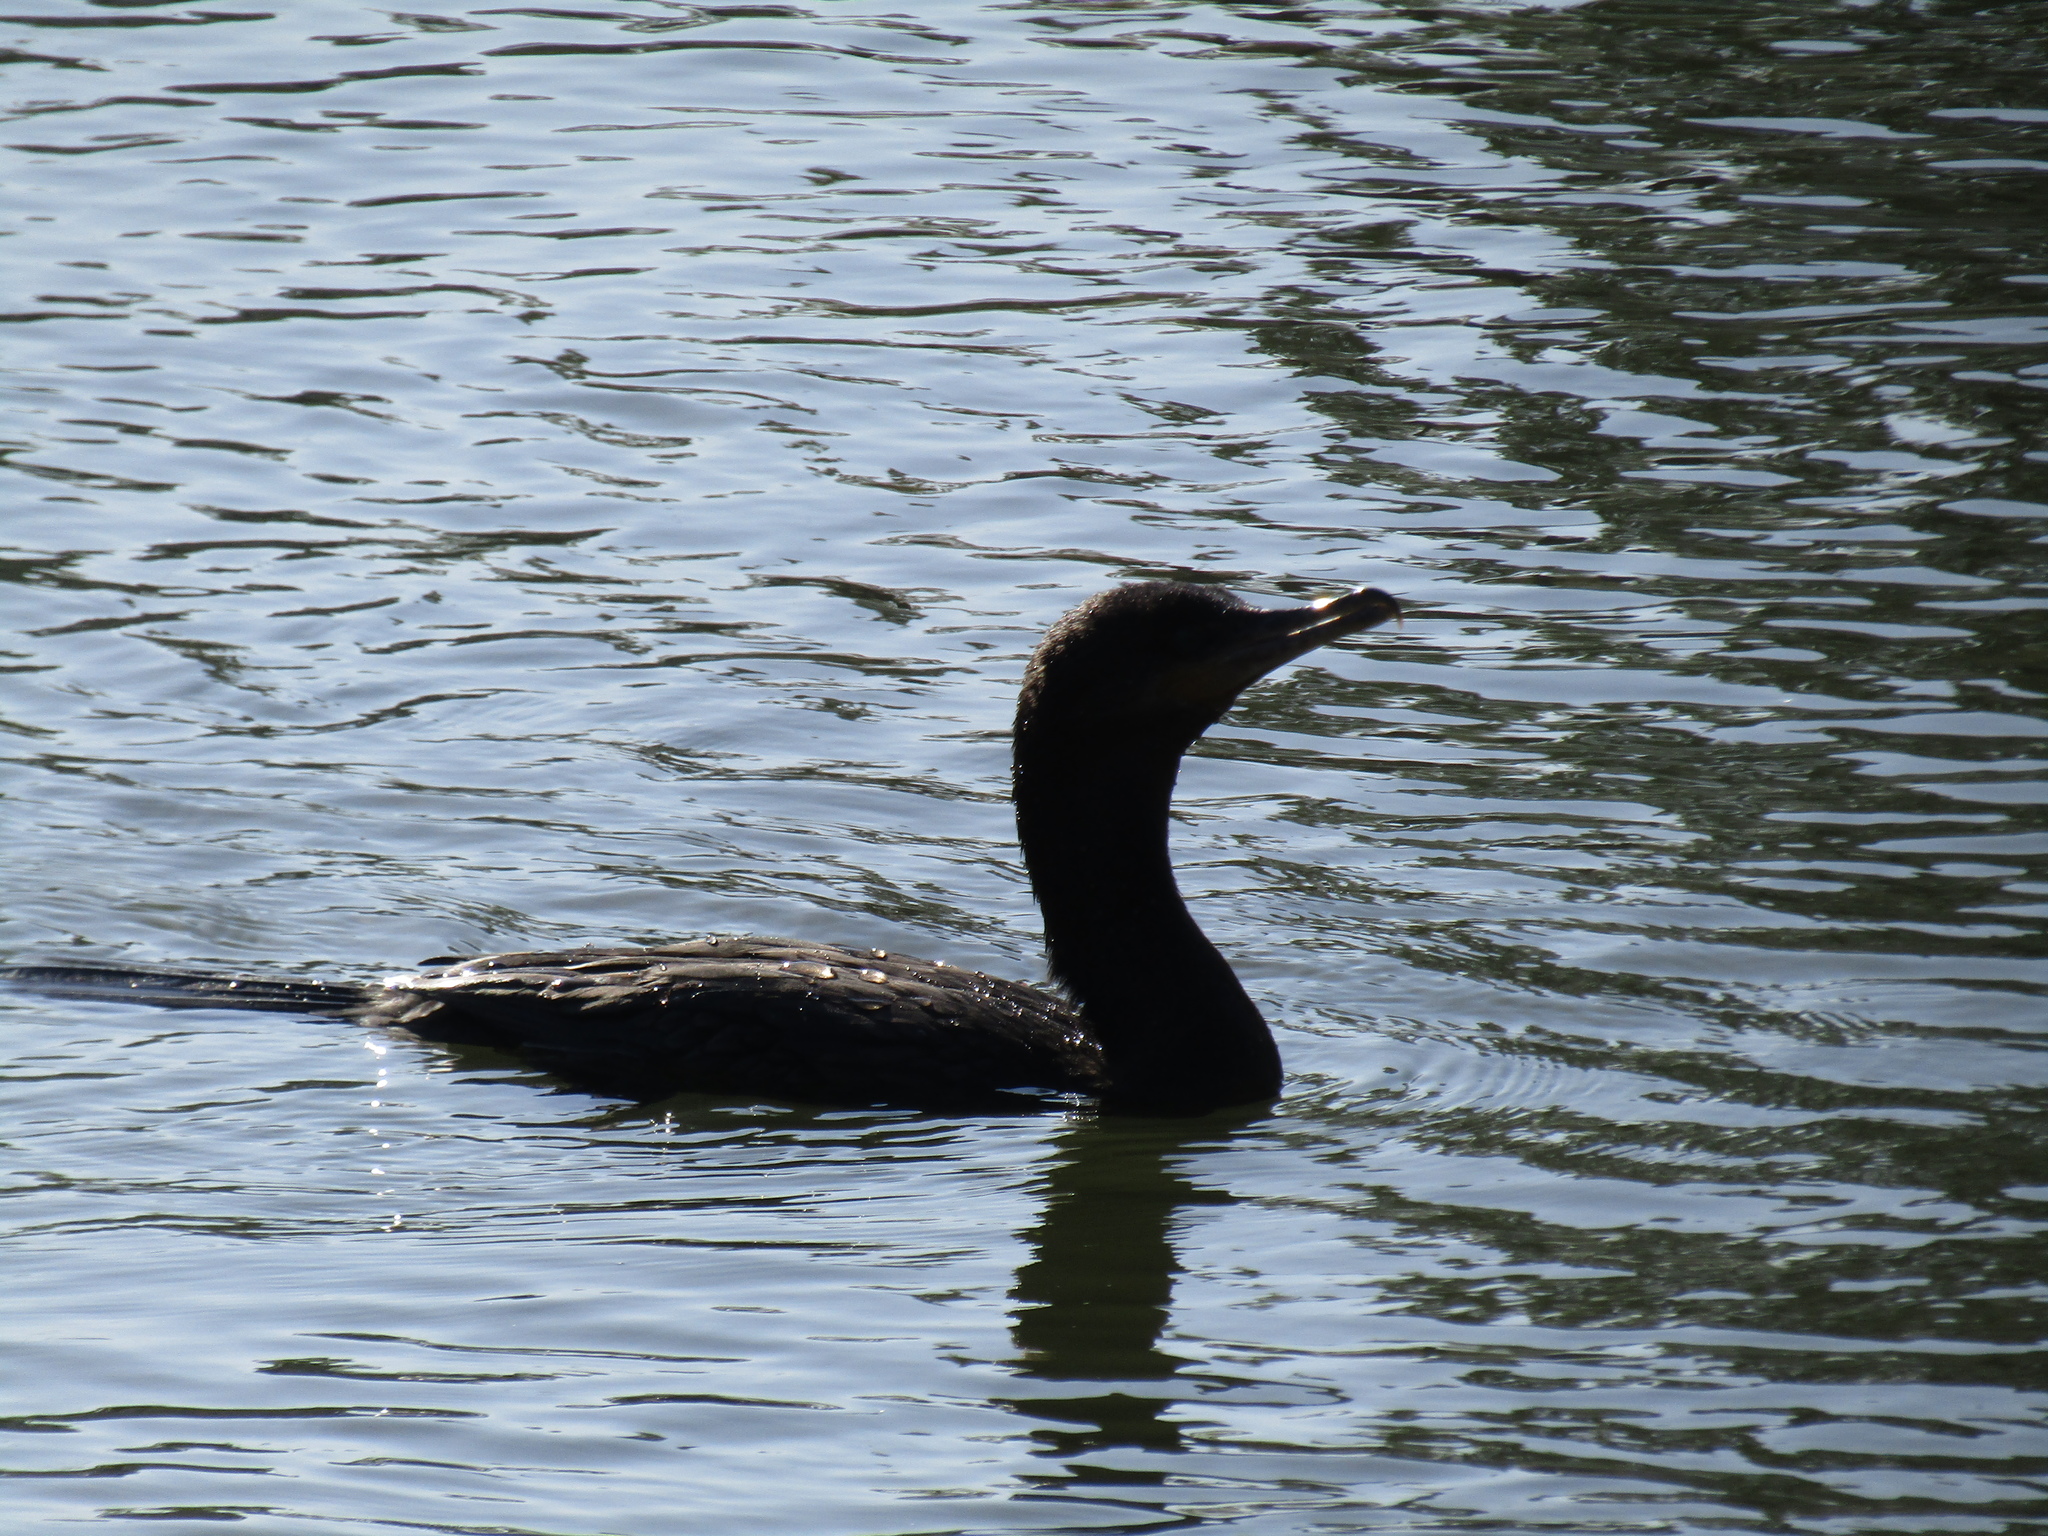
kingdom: Animalia
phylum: Chordata
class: Aves
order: Suliformes
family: Phalacrocoracidae
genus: Phalacrocorax
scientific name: Phalacrocorax brasilianus
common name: Neotropic cormorant
